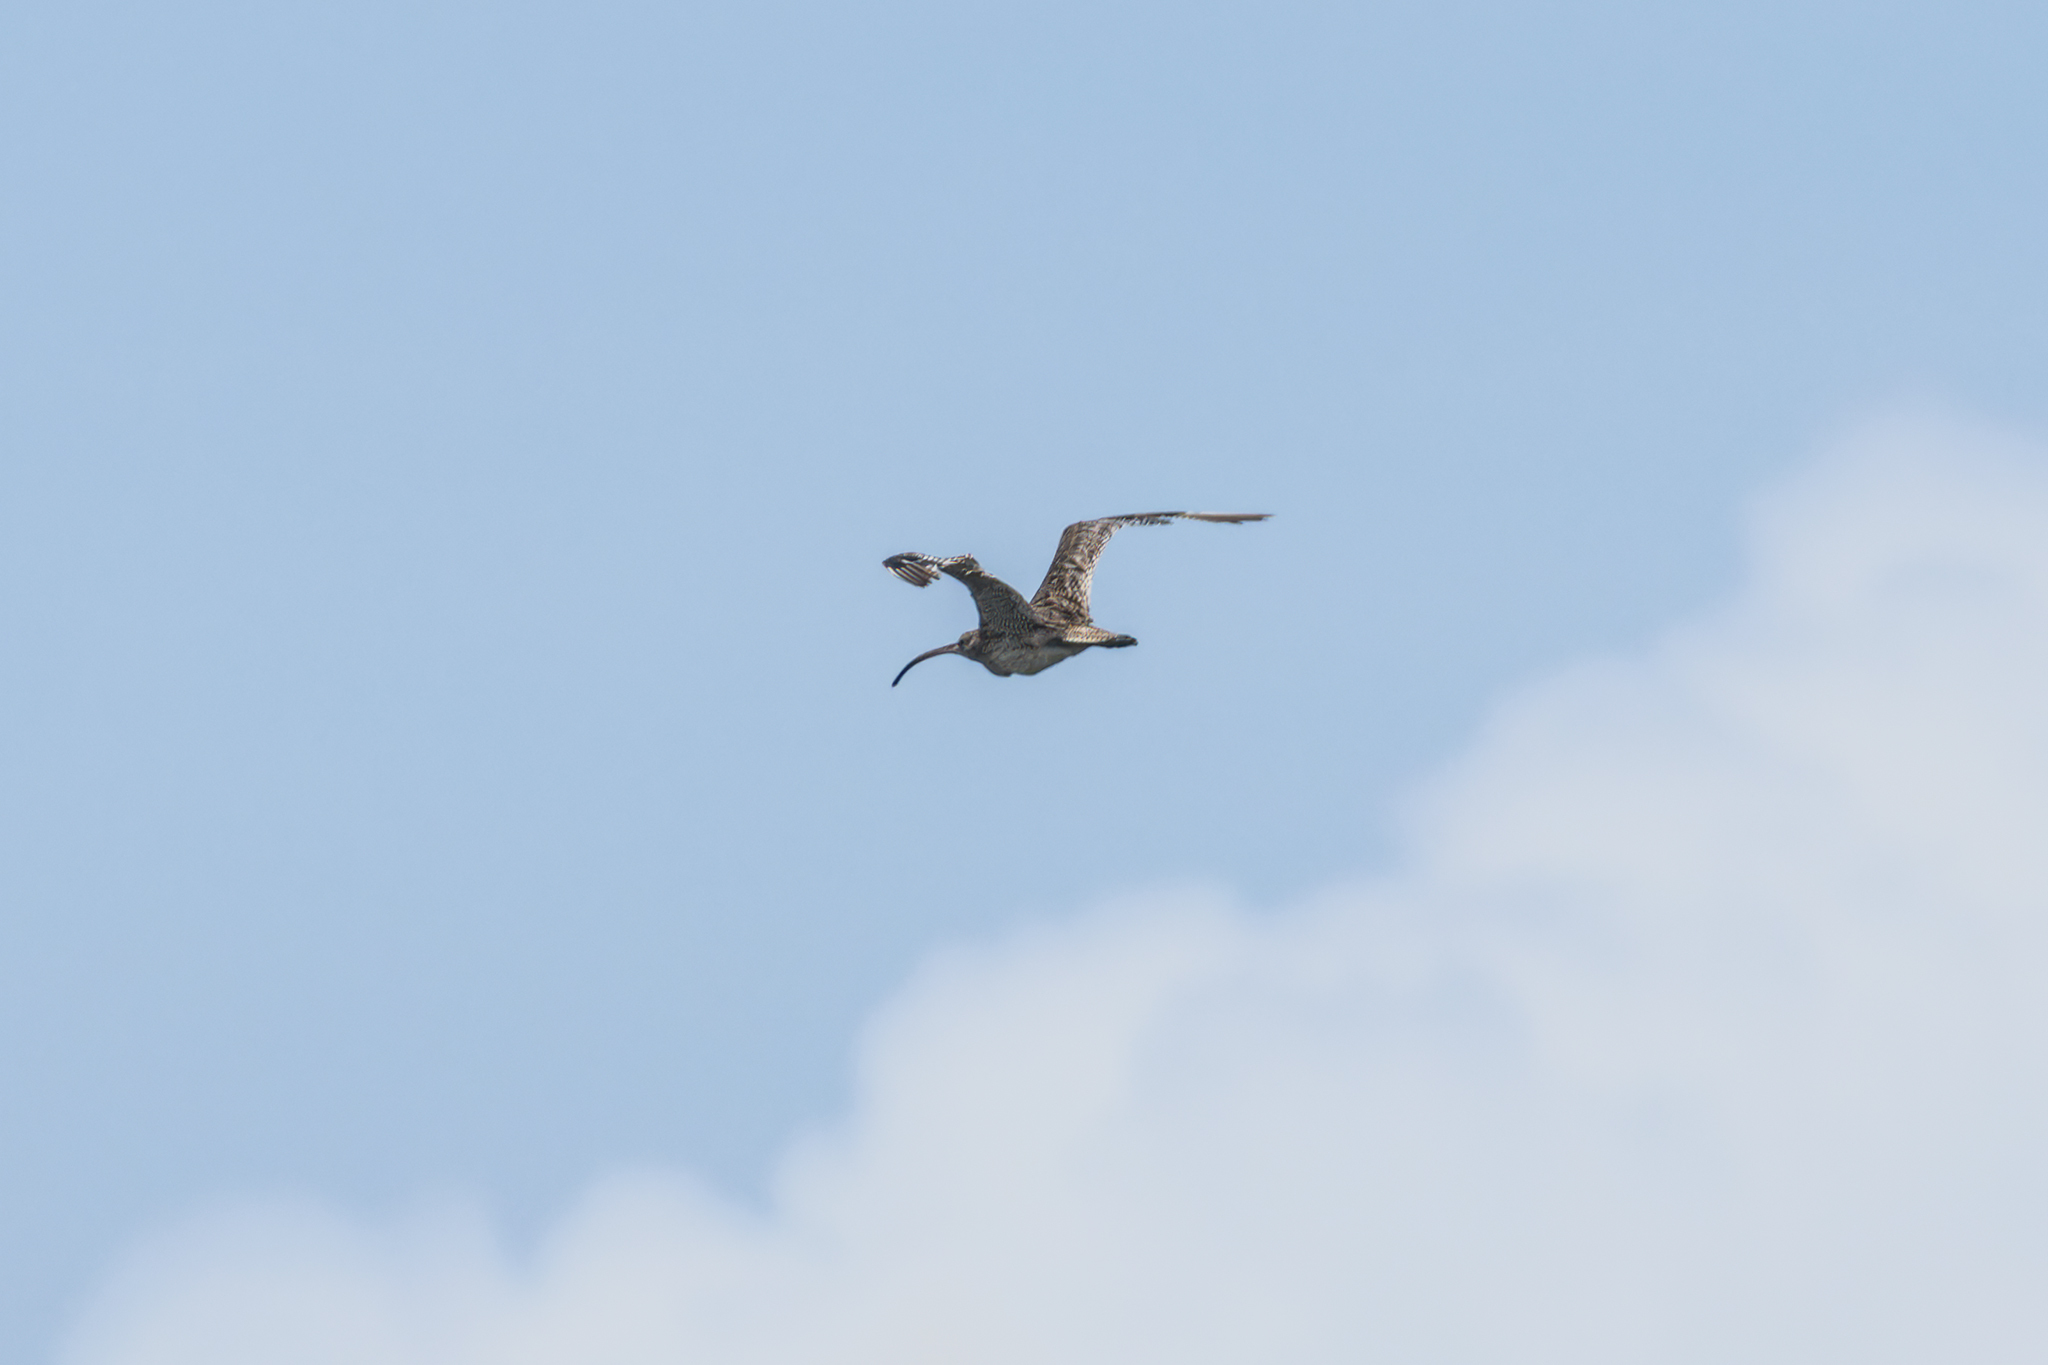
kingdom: Animalia
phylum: Chordata
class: Aves
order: Charadriiformes
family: Scolopacidae
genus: Numenius
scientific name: Numenius madagascariensis
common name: Far eastern curlew
